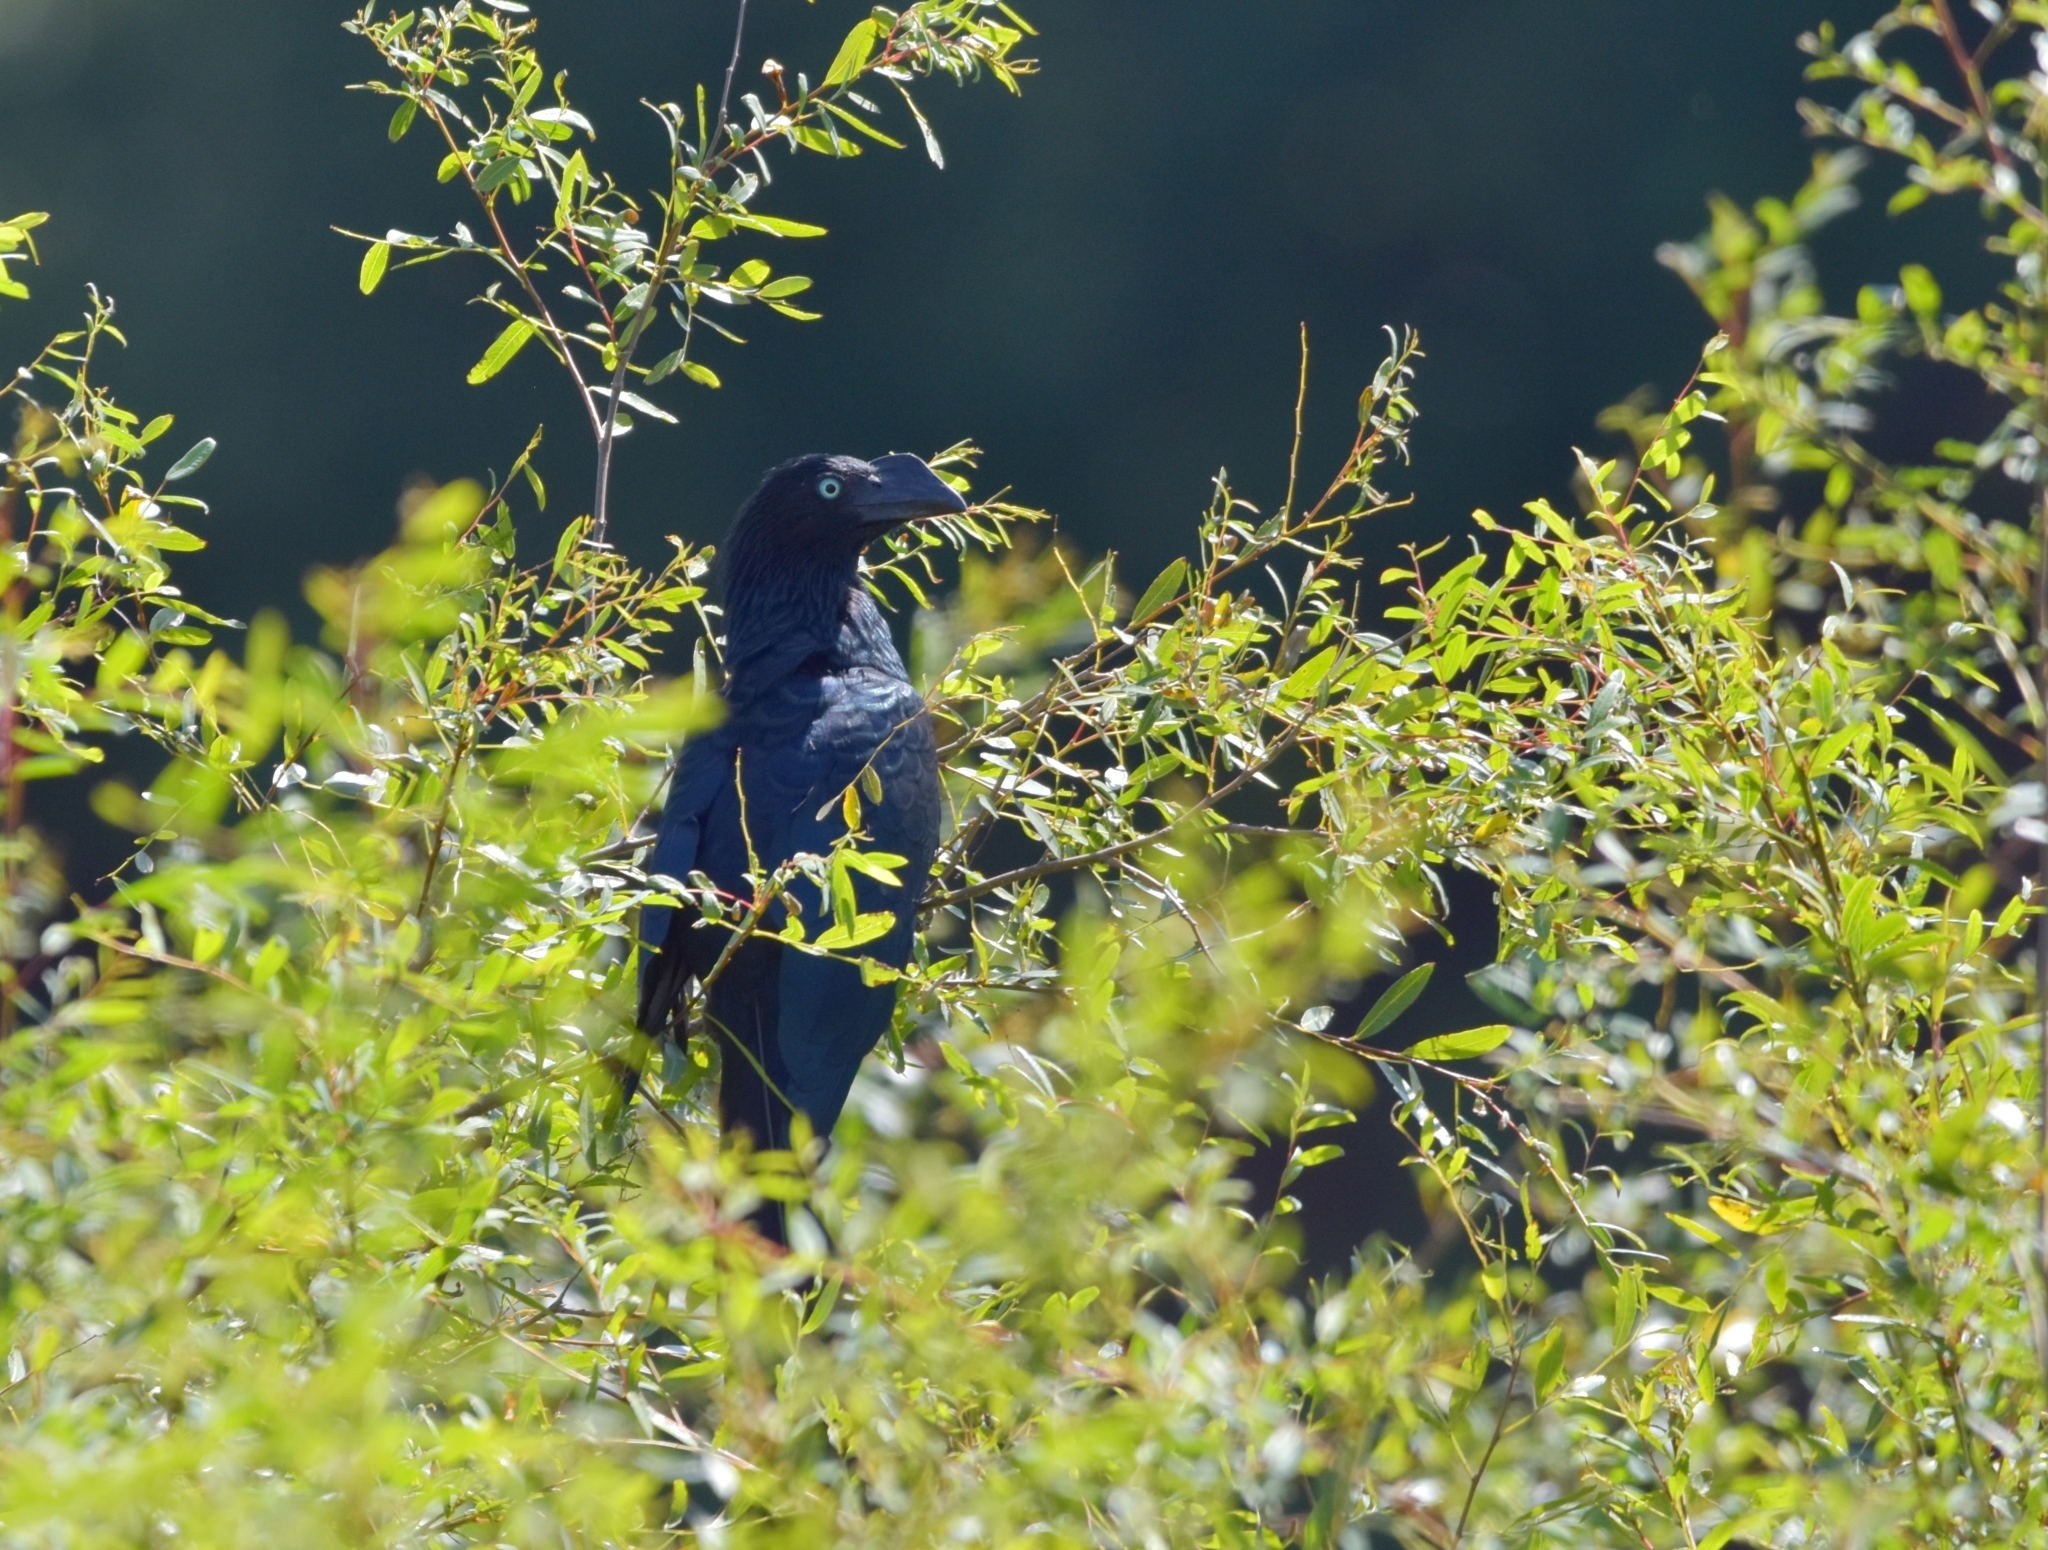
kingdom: Animalia
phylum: Chordata
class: Aves
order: Cuculiformes
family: Cuculidae
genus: Crotophaga
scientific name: Crotophaga major
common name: Greater ani
